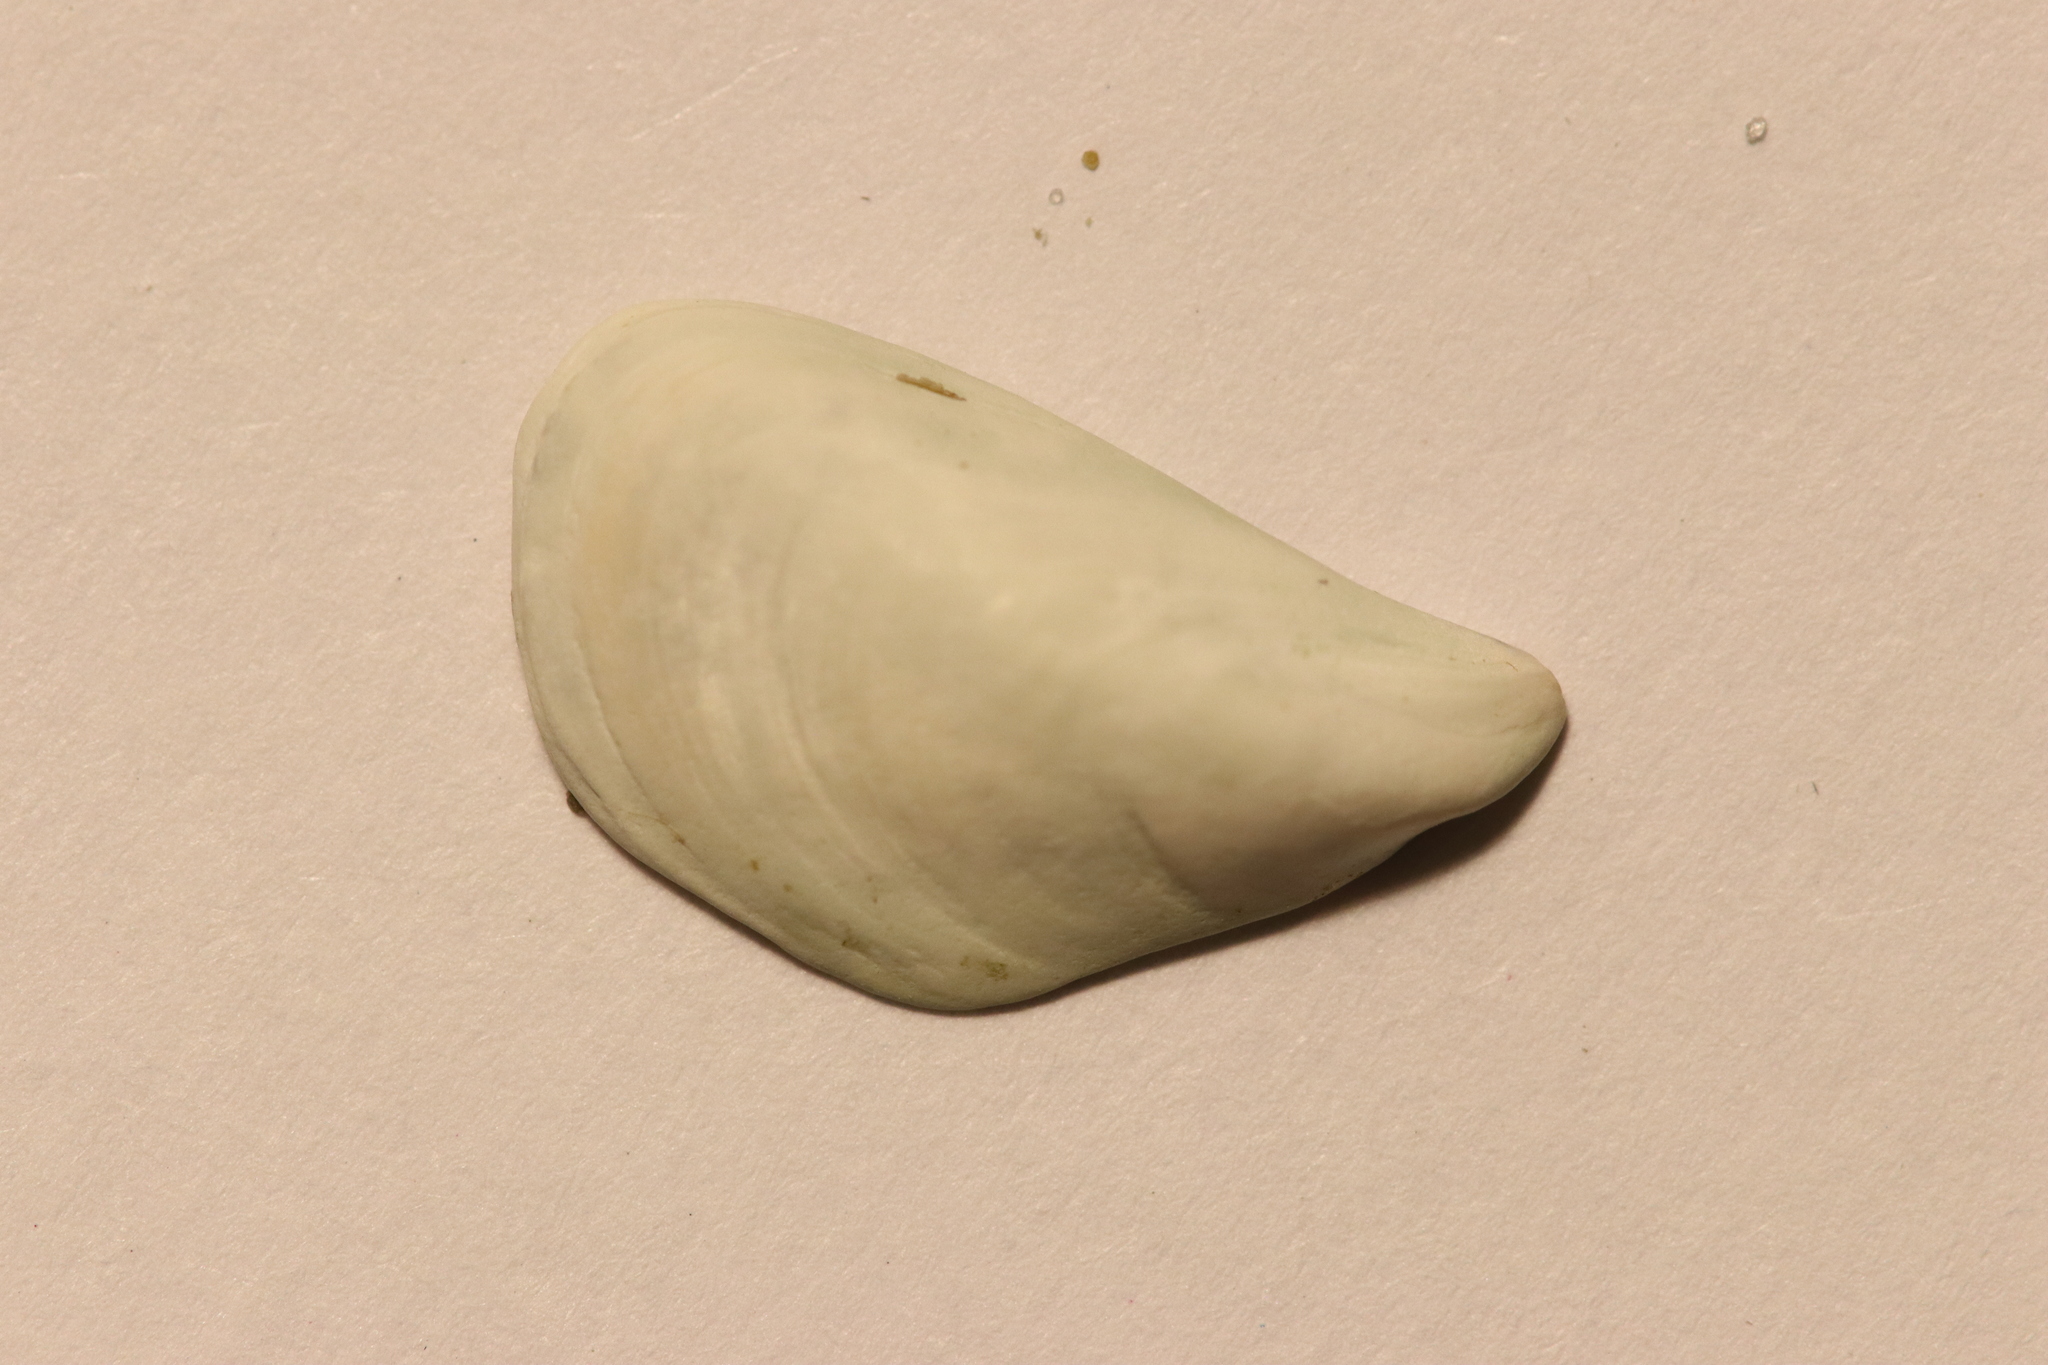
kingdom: Animalia
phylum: Mollusca
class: Bivalvia
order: Myida
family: Dreissenidae
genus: Dreissena
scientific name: Dreissena bugensis
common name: Quagga mussel
